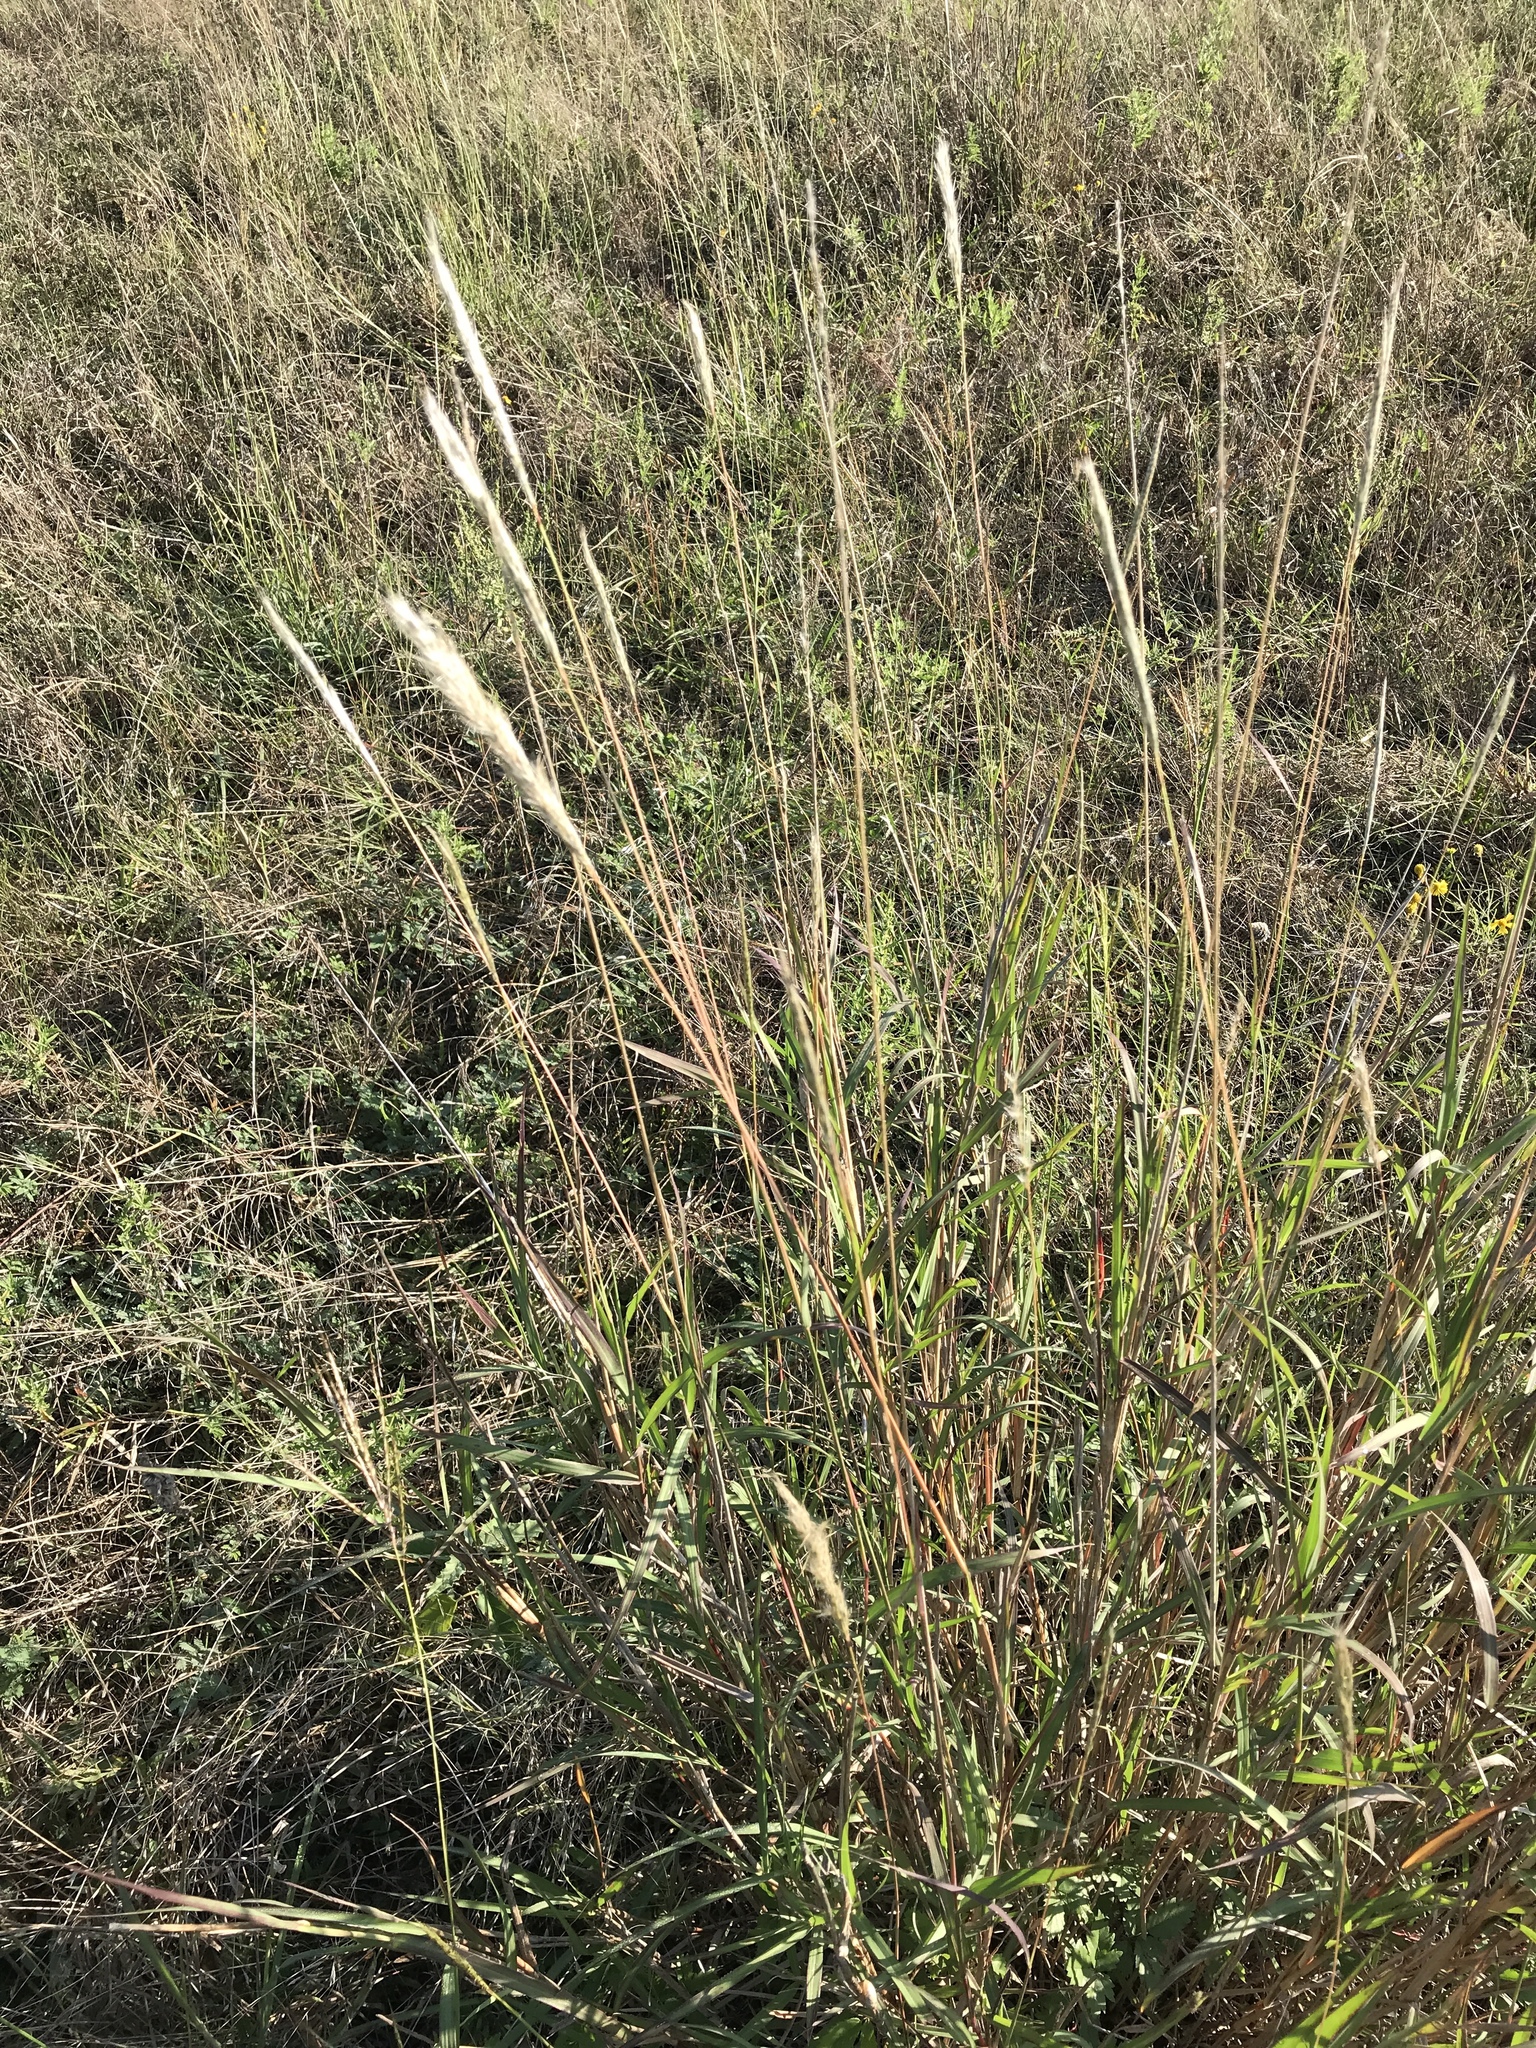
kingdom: Plantae
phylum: Tracheophyta
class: Liliopsida
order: Poales
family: Poaceae
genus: Bothriochloa
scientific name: Bothriochloa torreyana
